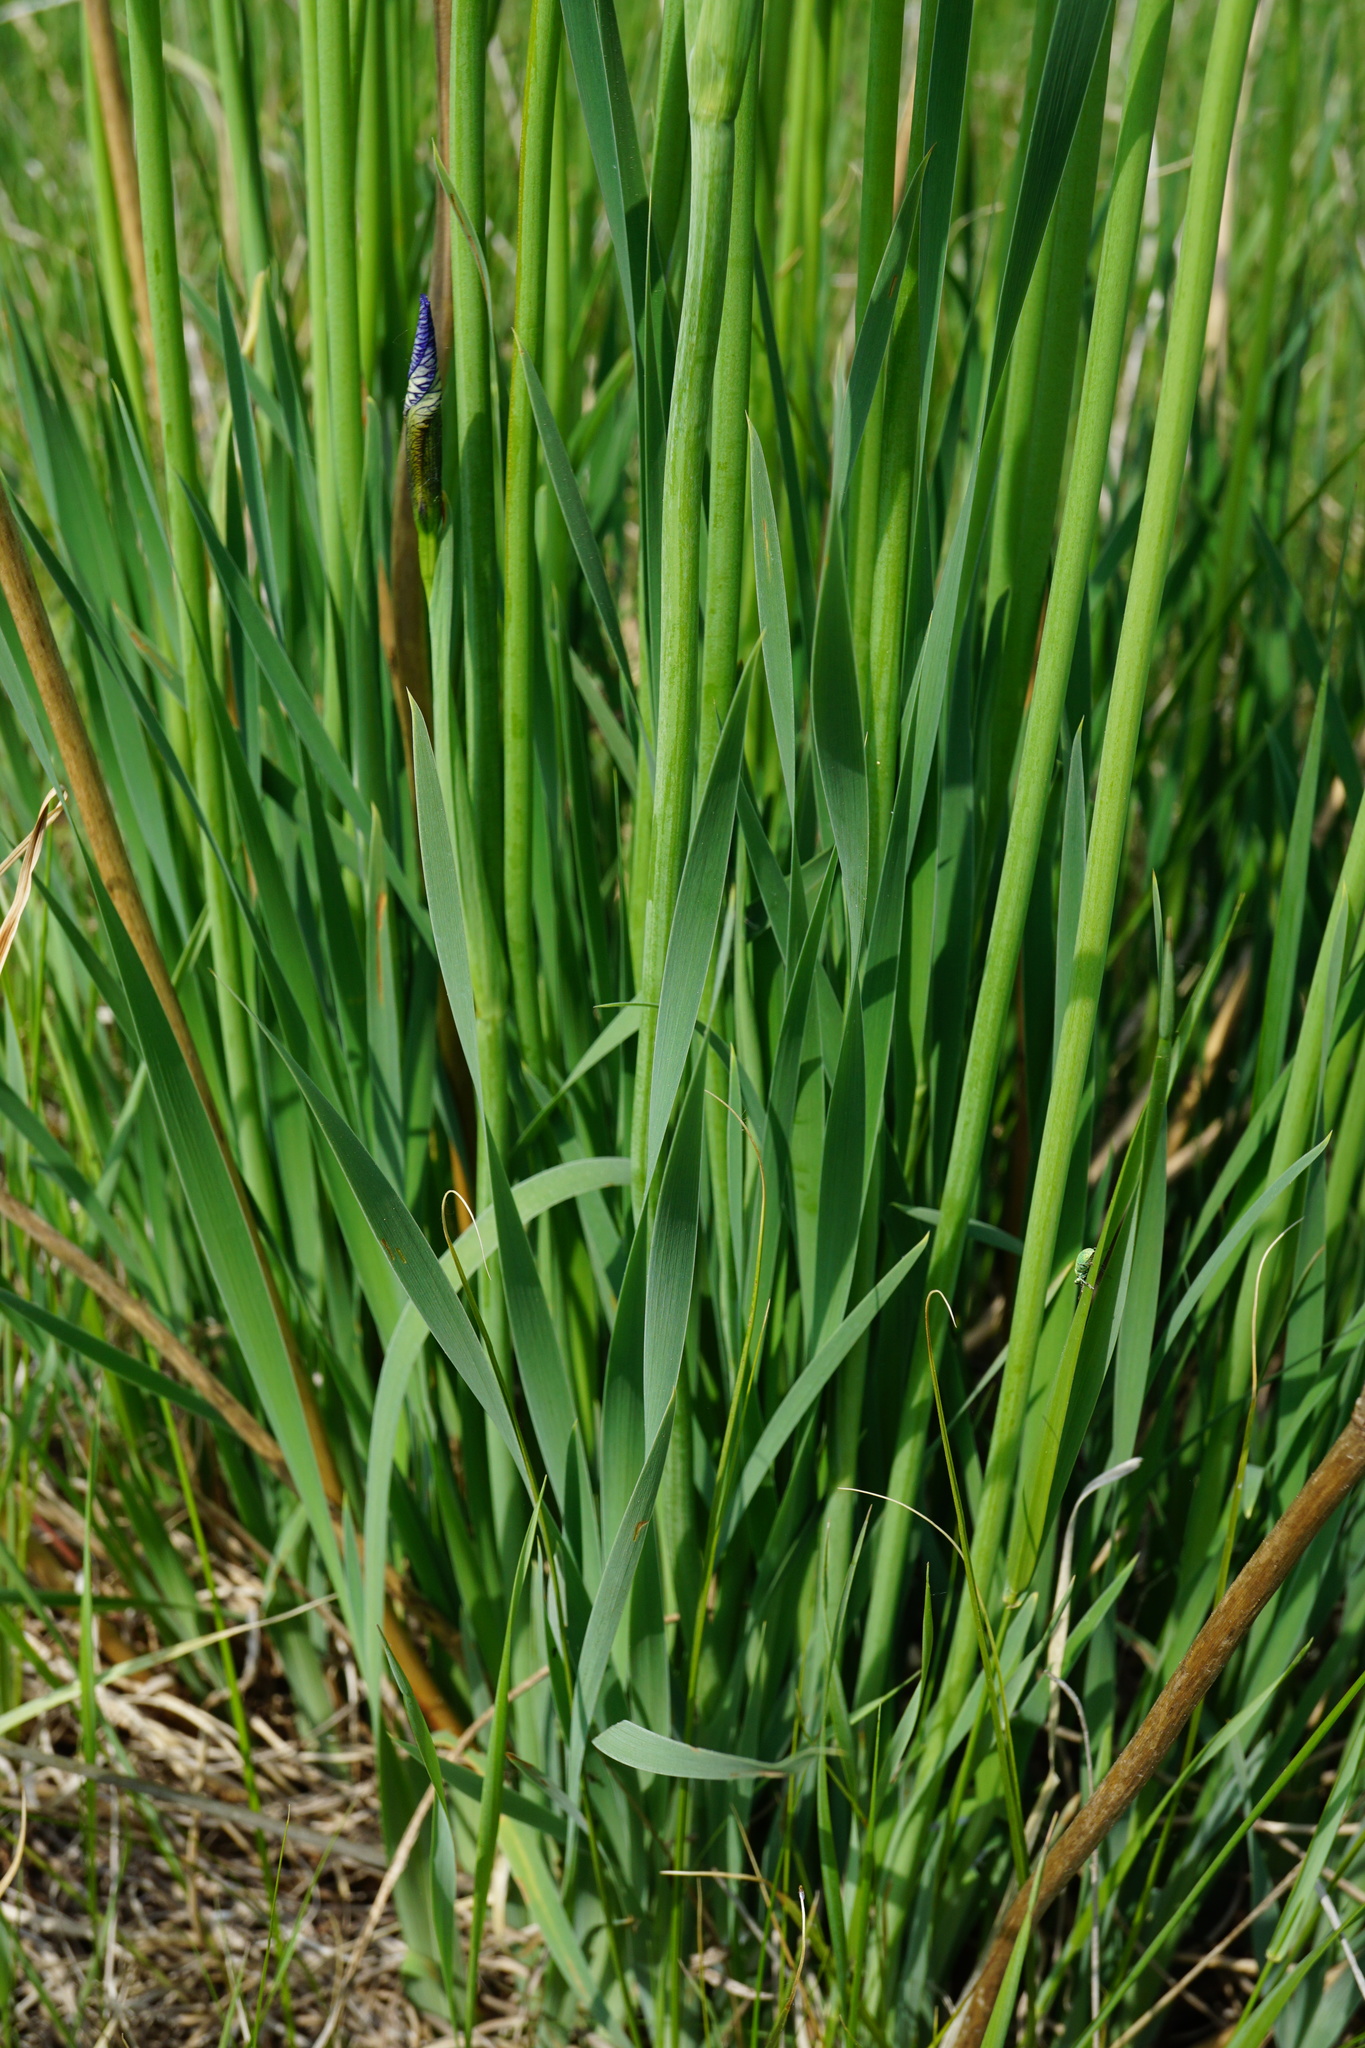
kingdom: Plantae
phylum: Tracheophyta
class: Liliopsida
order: Asparagales
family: Iridaceae
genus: Iris
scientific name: Iris sibirica
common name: Siberian iris
